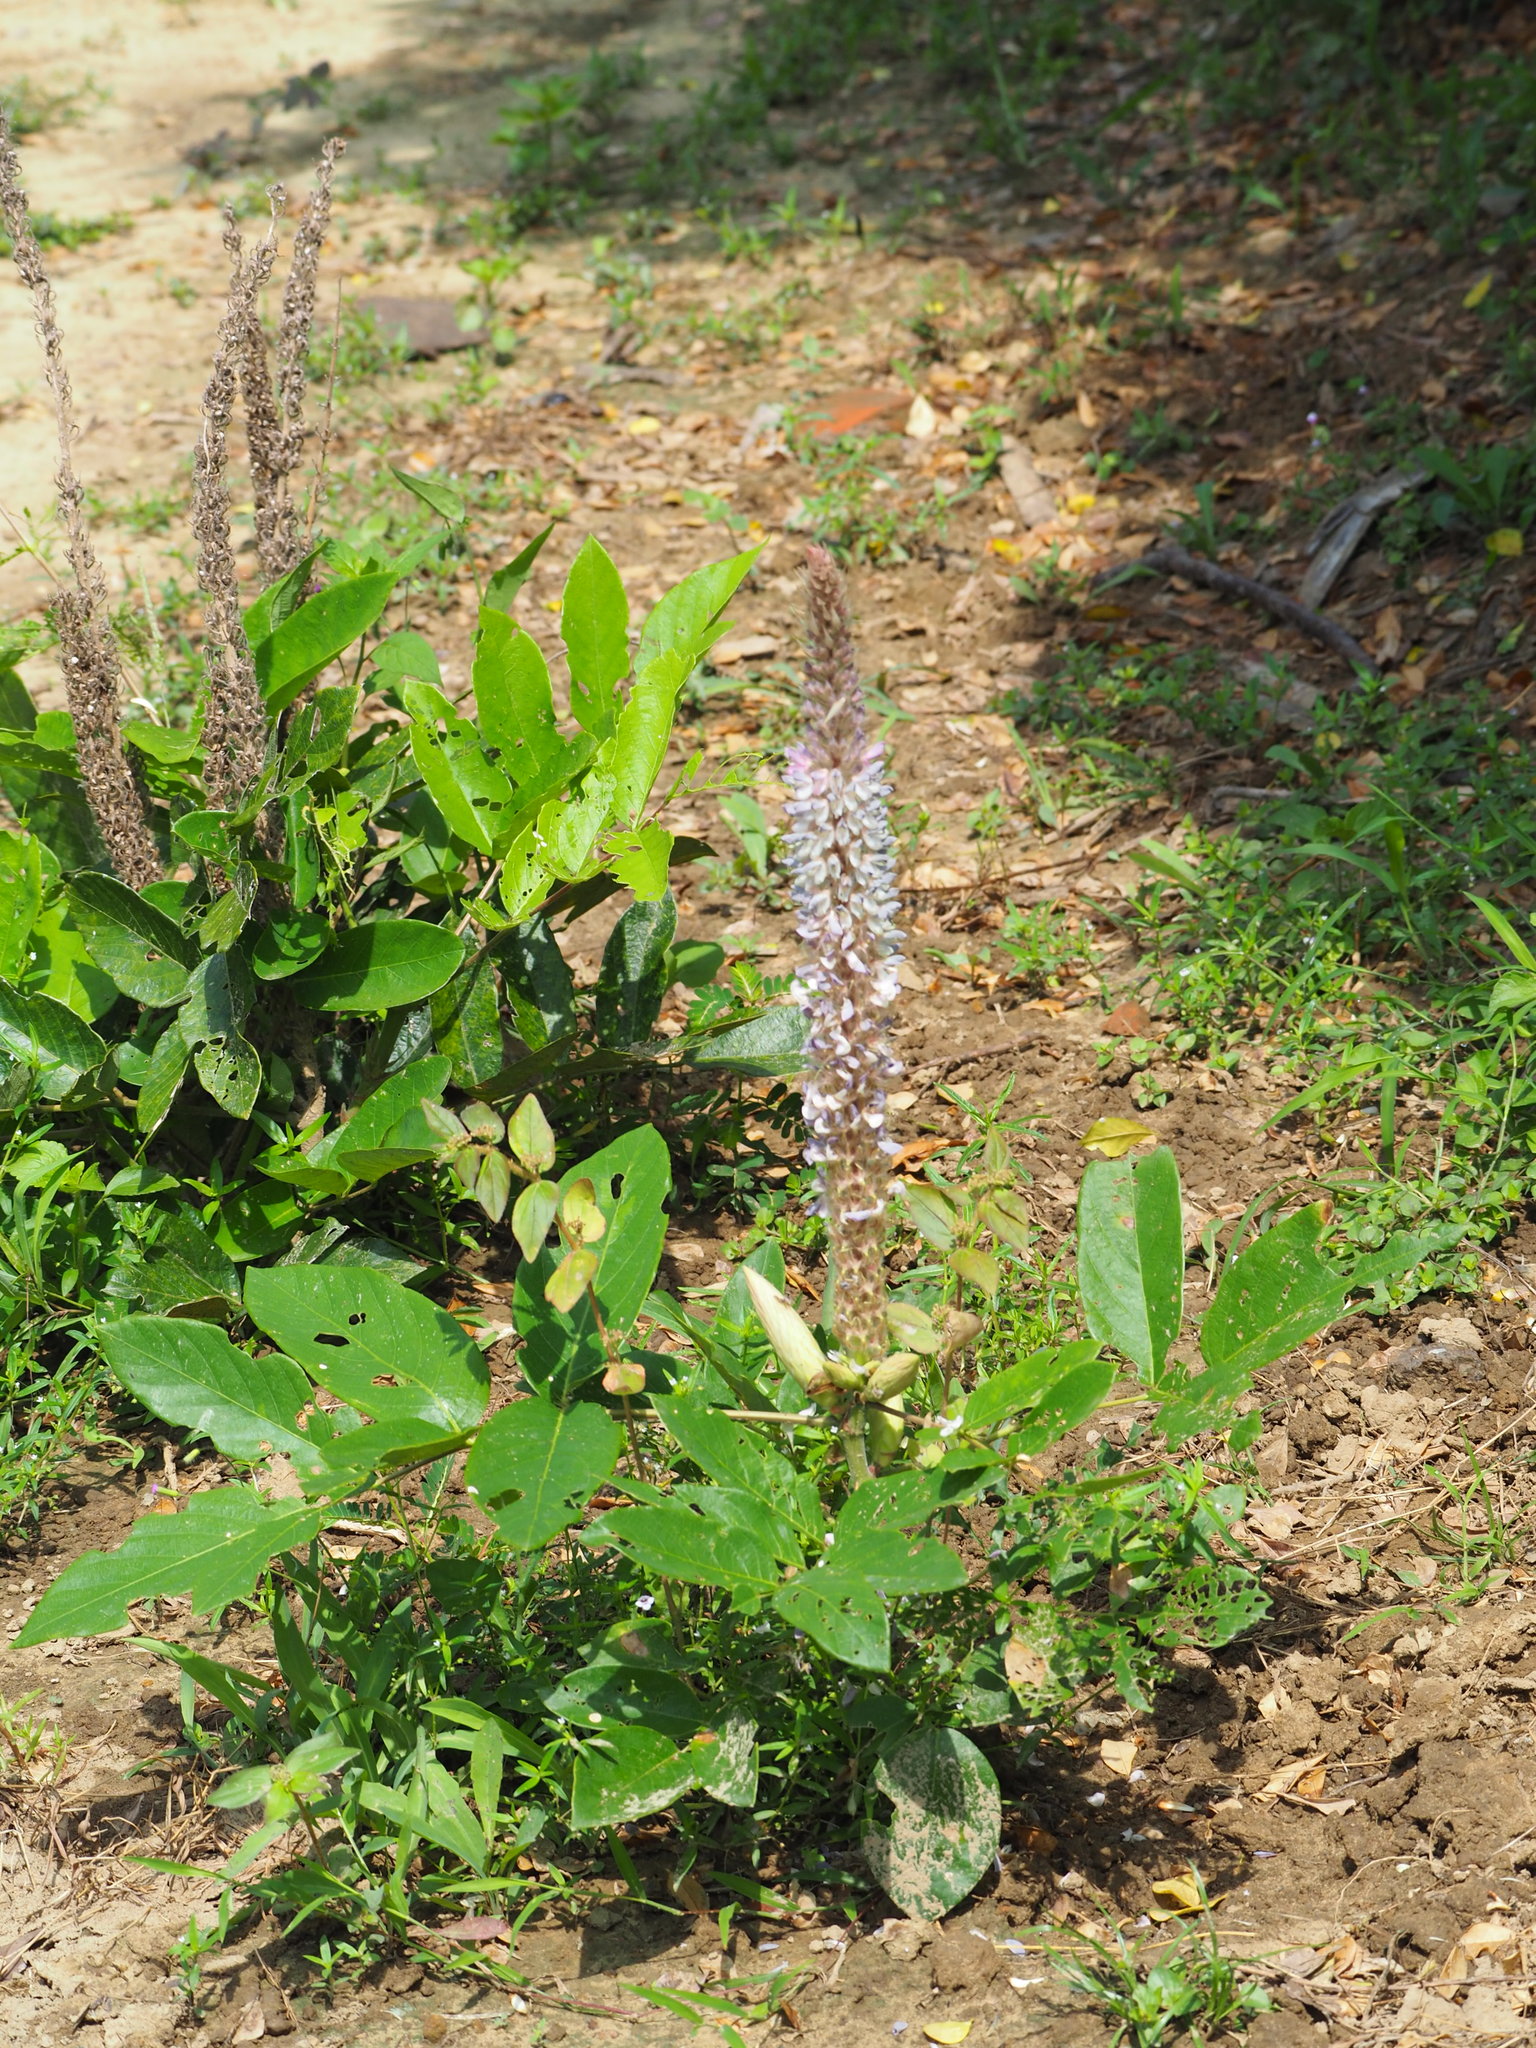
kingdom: Plantae
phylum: Tracheophyta
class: Magnoliopsida
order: Fabales
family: Fabaceae
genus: Uraria
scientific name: Uraria crinita
